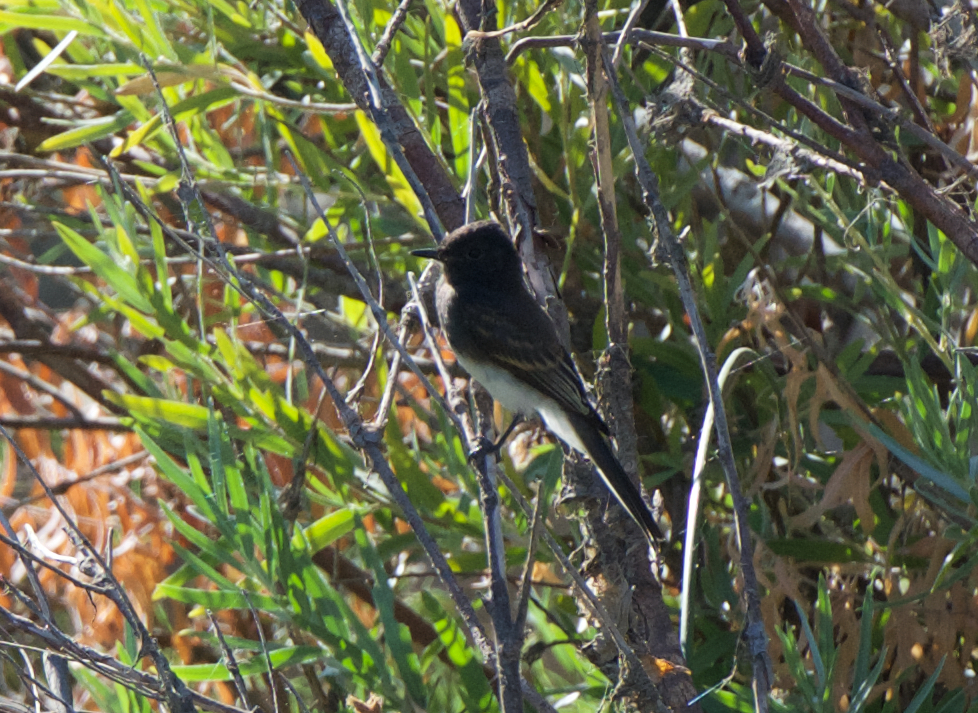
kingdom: Animalia
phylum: Chordata
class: Aves
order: Passeriformes
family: Tyrannidae
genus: Sayornis
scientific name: Sayornis nigricans
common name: Black phoebe
